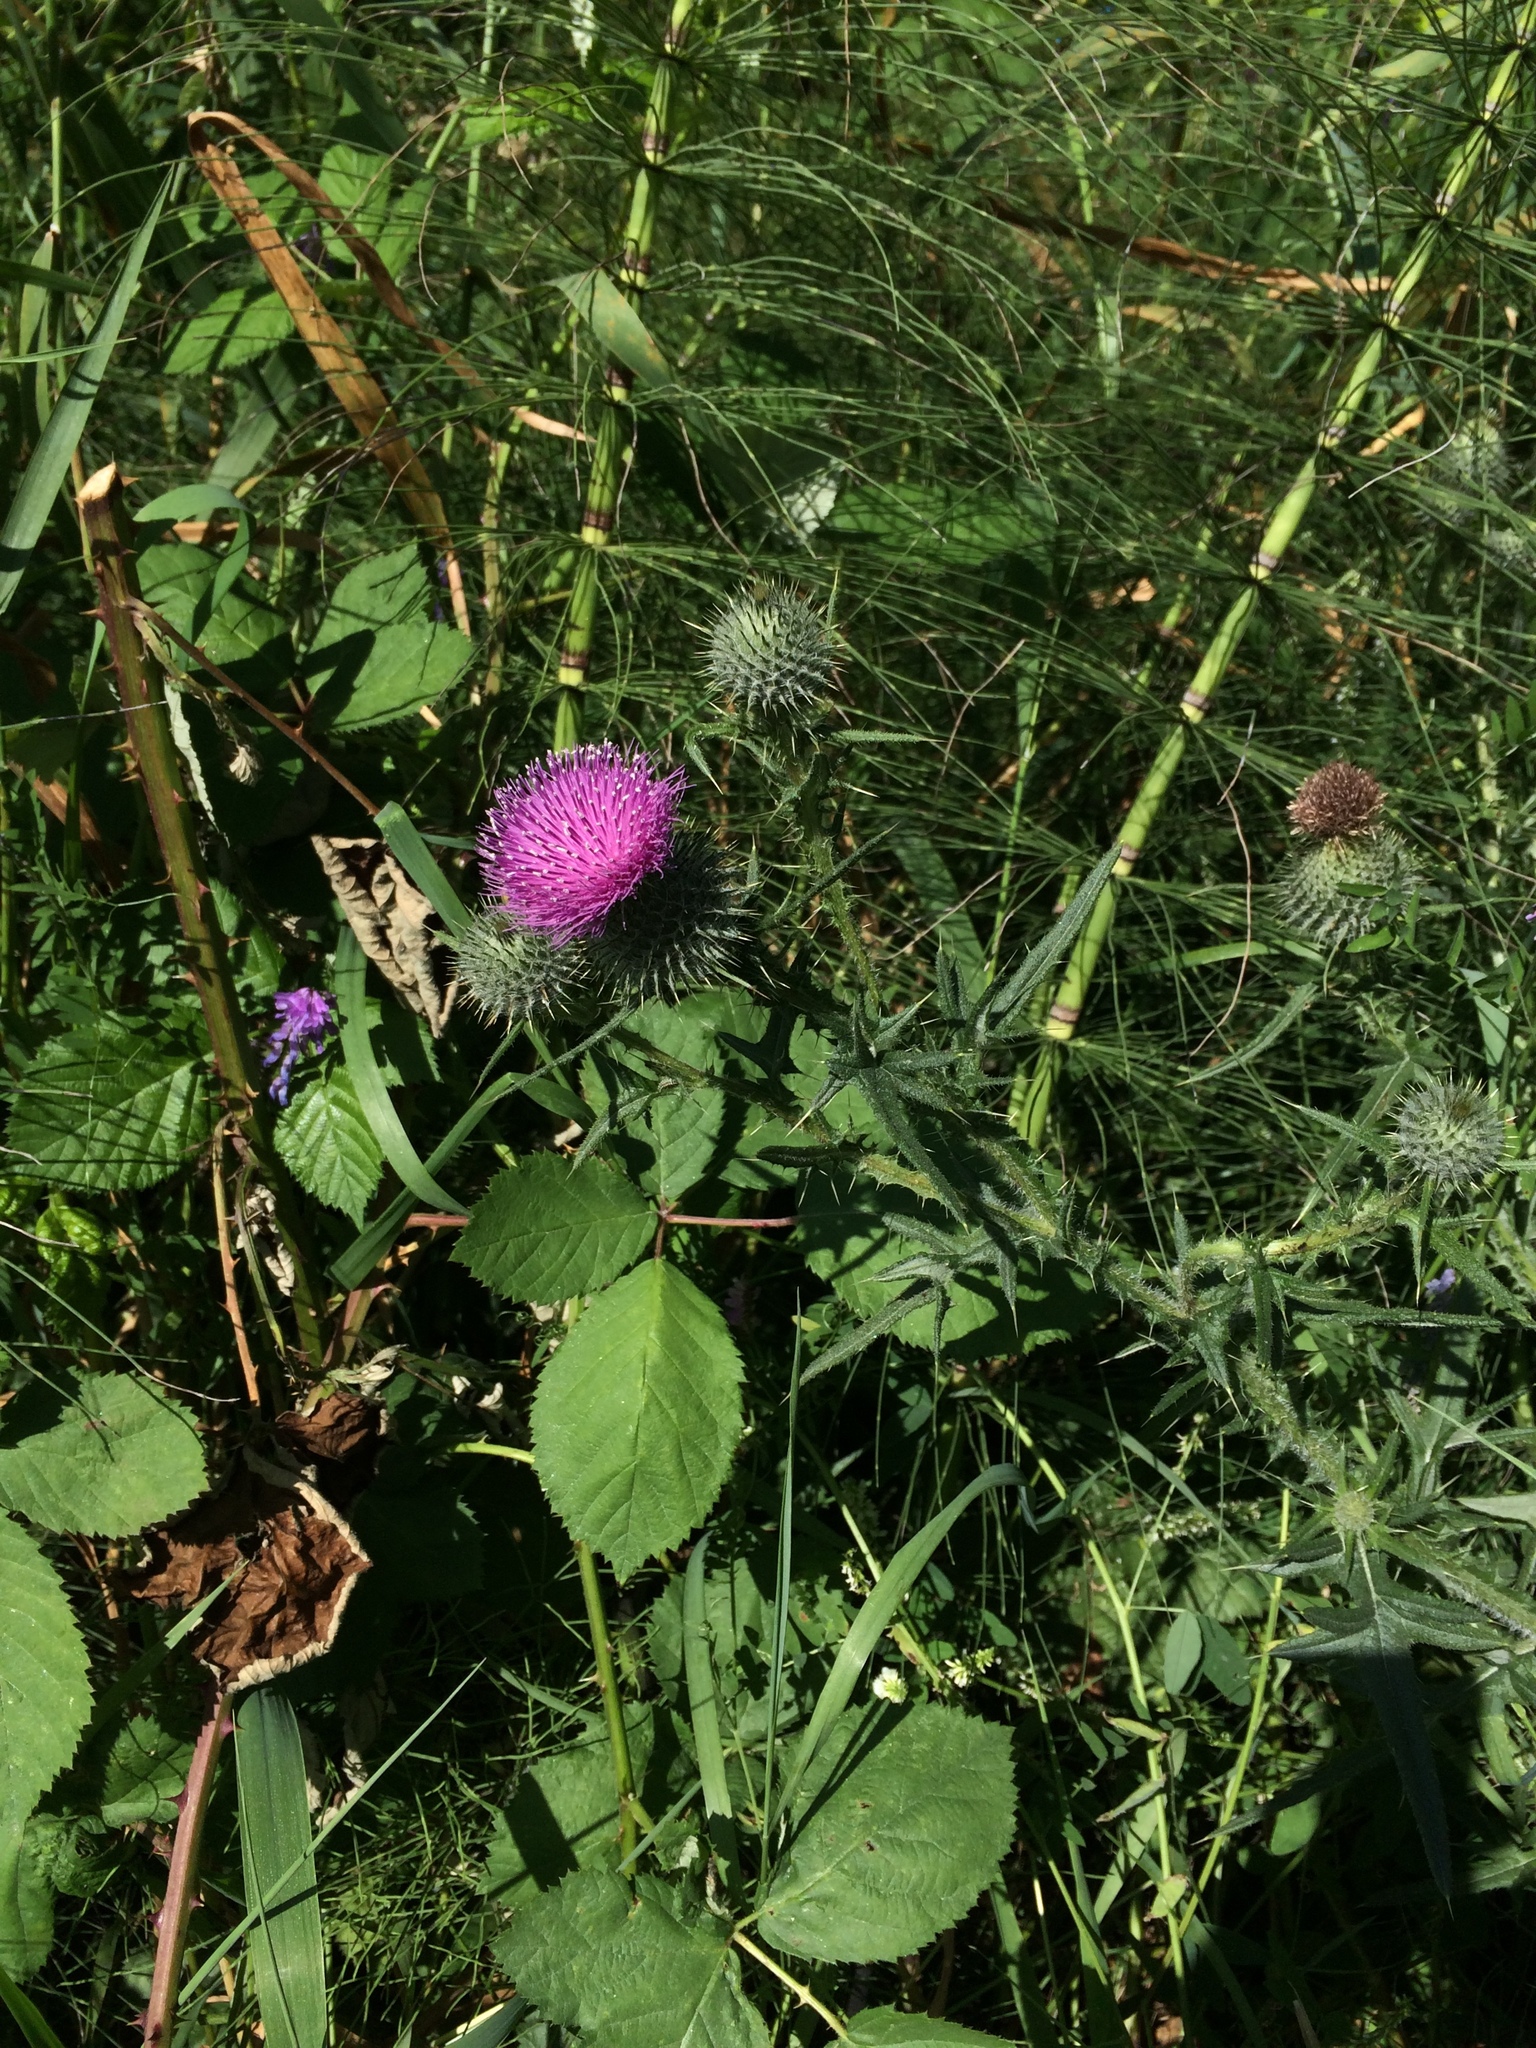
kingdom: Plantae
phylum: Tracheophyta
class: Magnoliopsida
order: Asterales
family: Asteraceae
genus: Cirsium
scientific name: Cirsium vulgare
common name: Bull thistle
